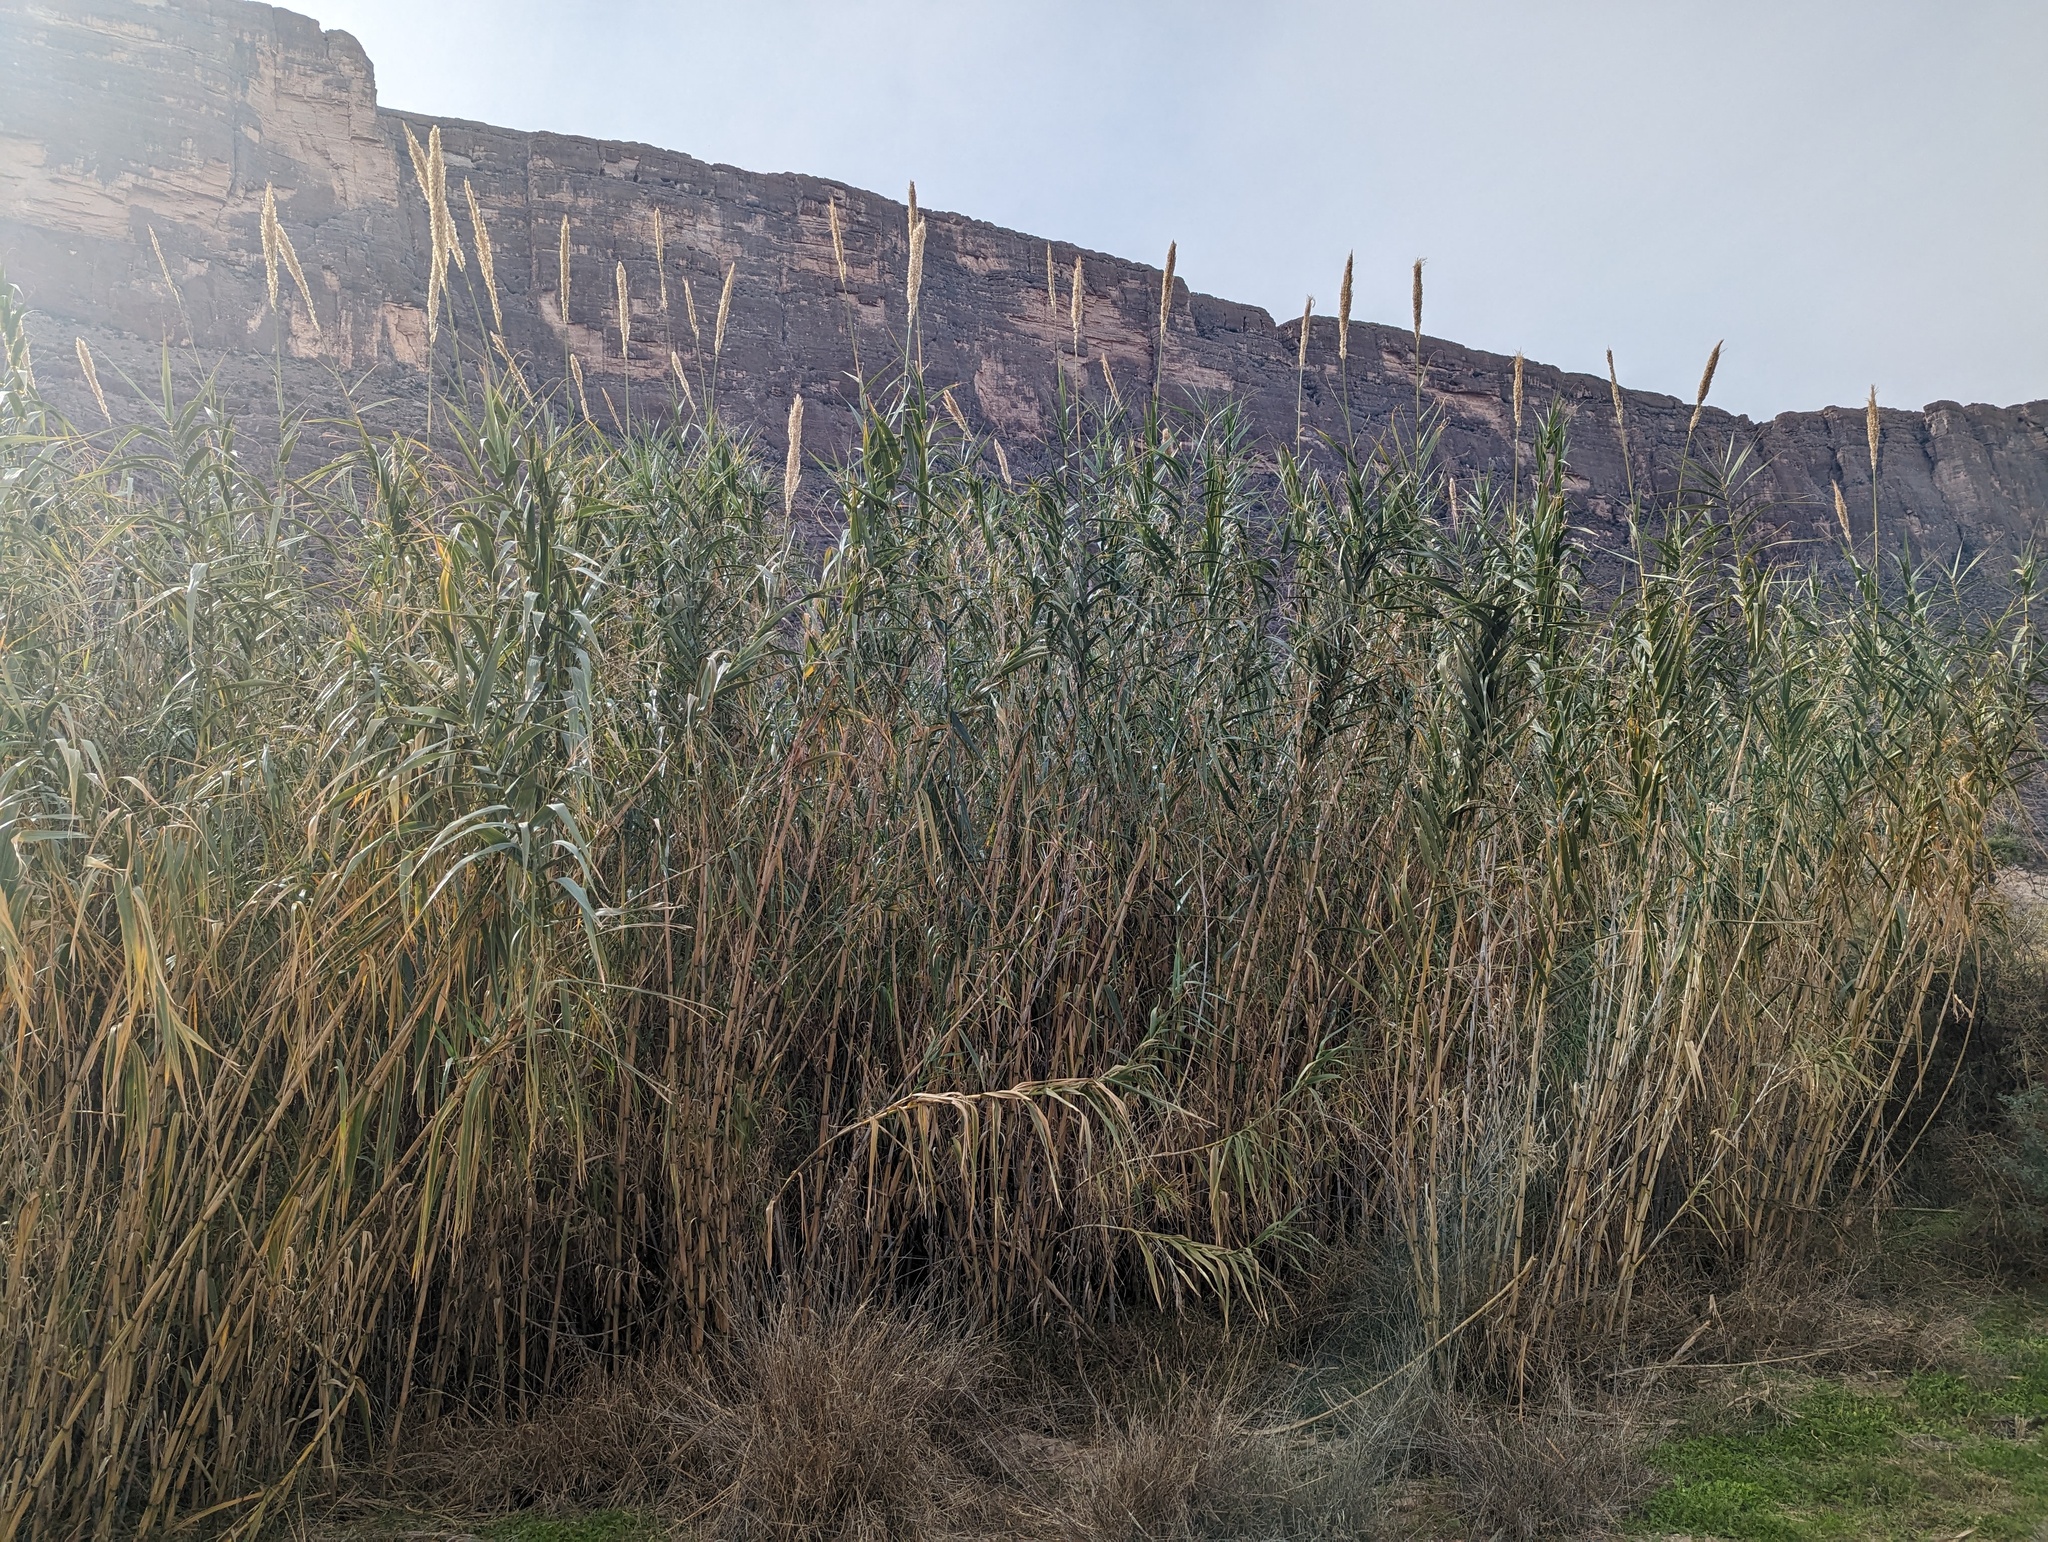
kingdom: Plantae
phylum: Tracheophyta
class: Liliopsida
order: Poales
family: Poaceae
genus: Arundo
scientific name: Arundo donax
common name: Giant reed
